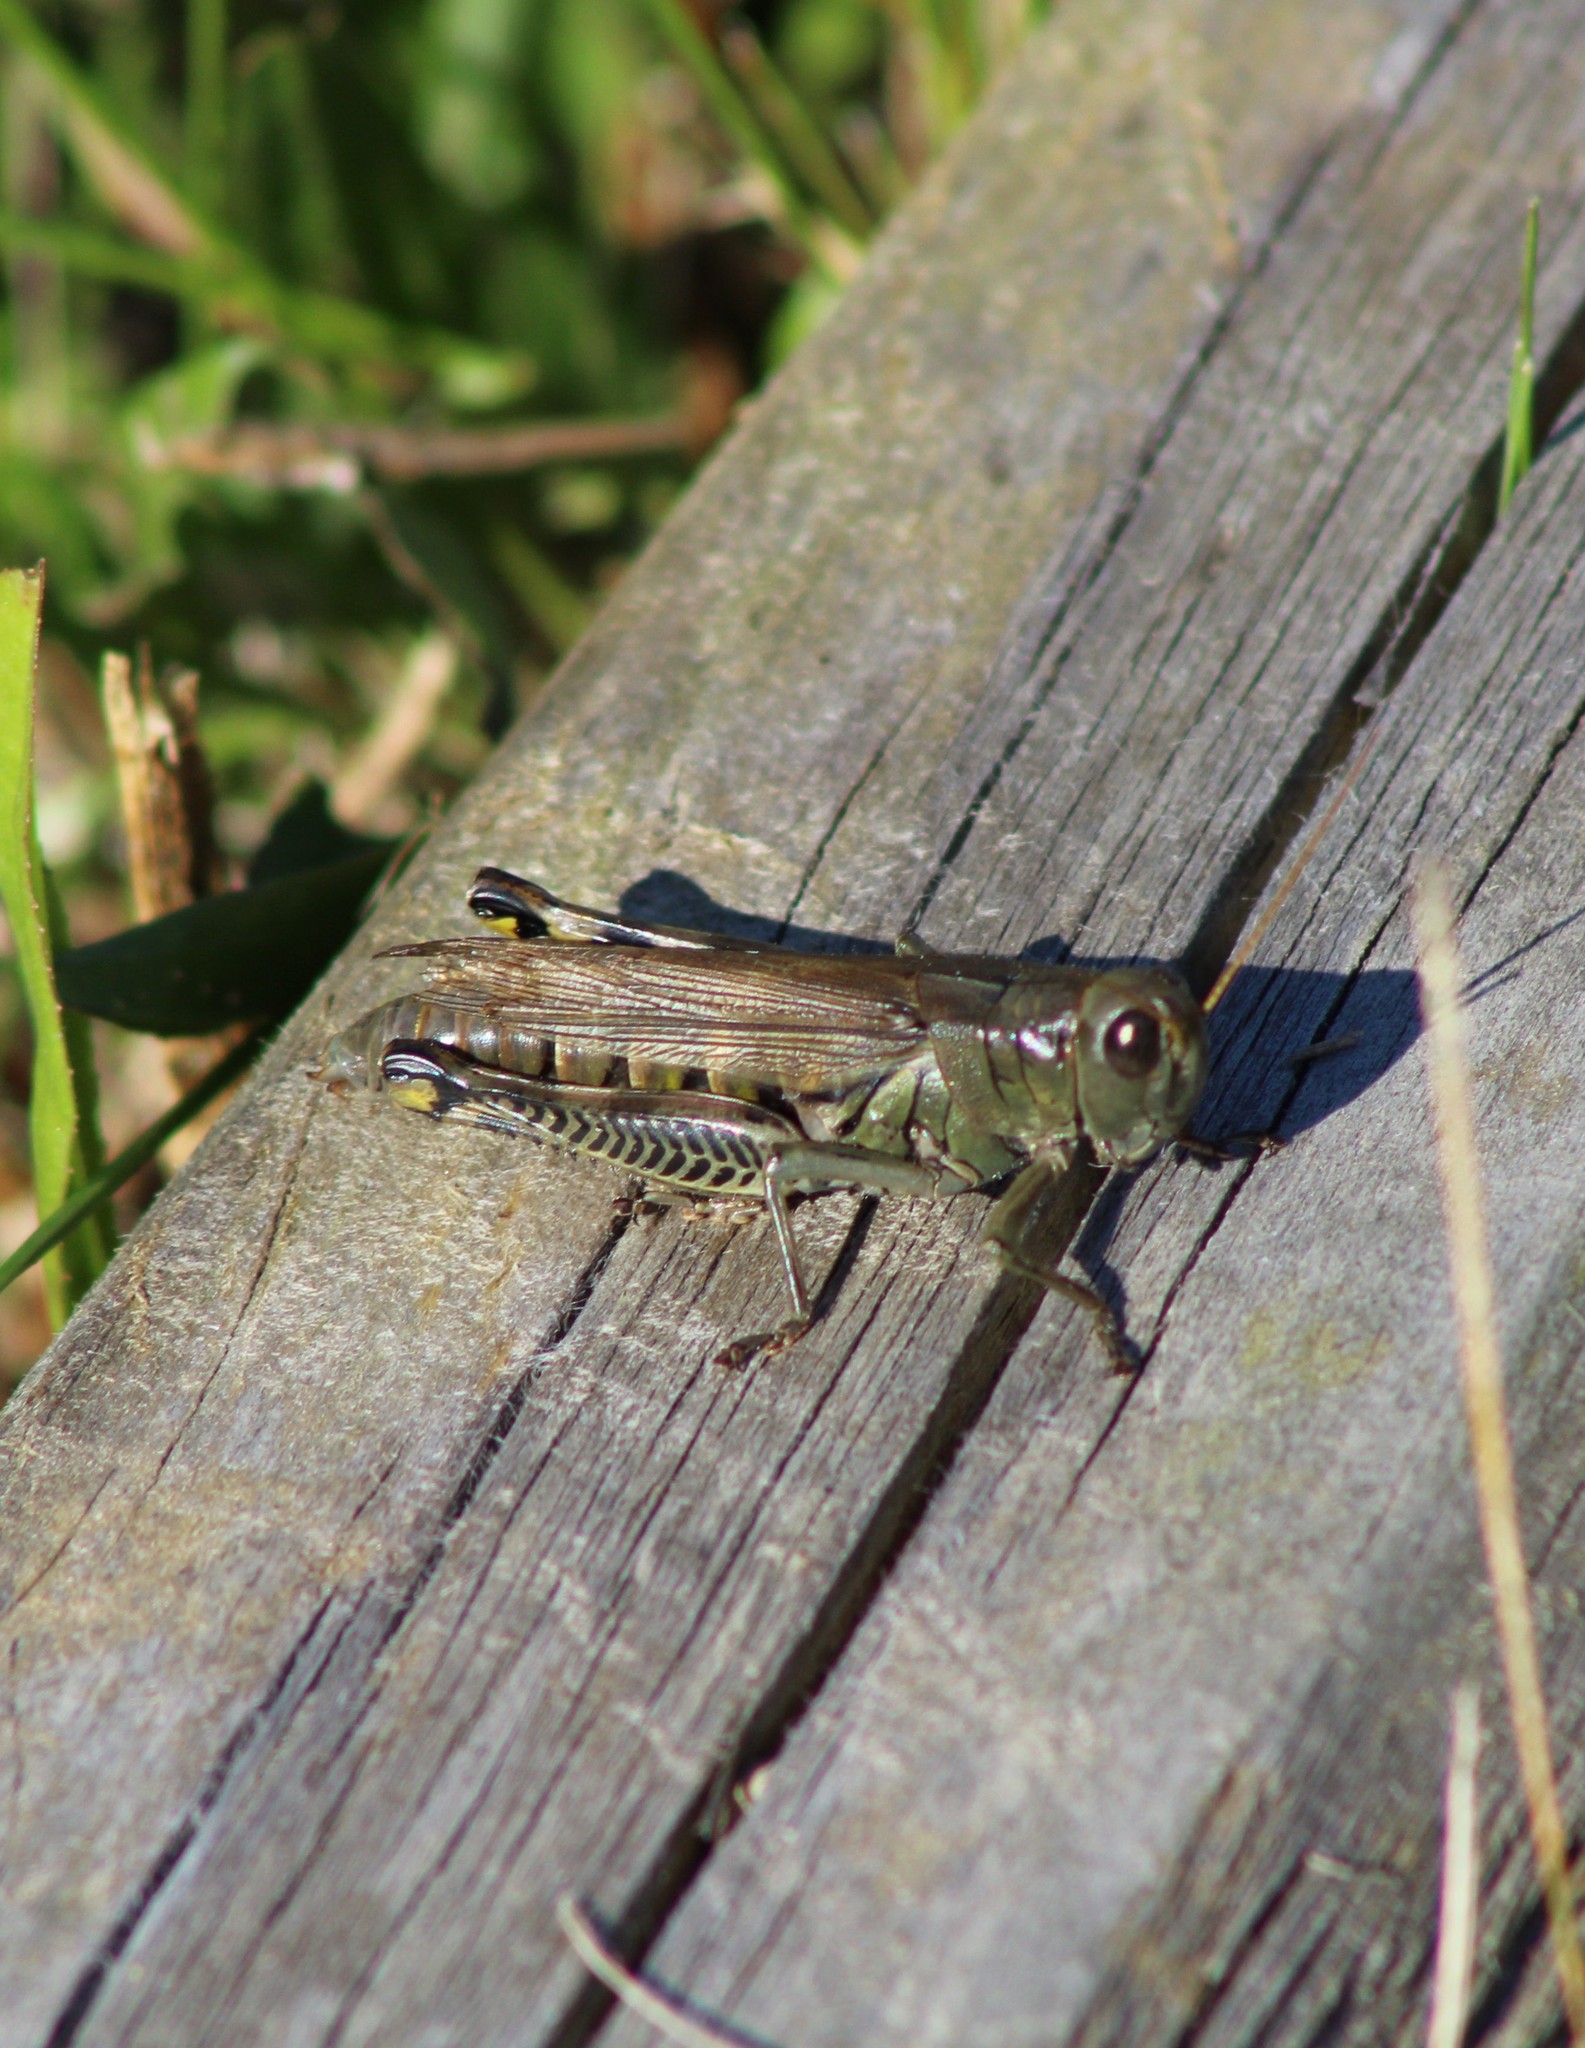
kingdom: Animalia
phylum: Arthropoda
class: Insecta
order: Orthoptera
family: Acrididae
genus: Melanoplus
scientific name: Melanoplus differentialis
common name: Differential grasshopper
